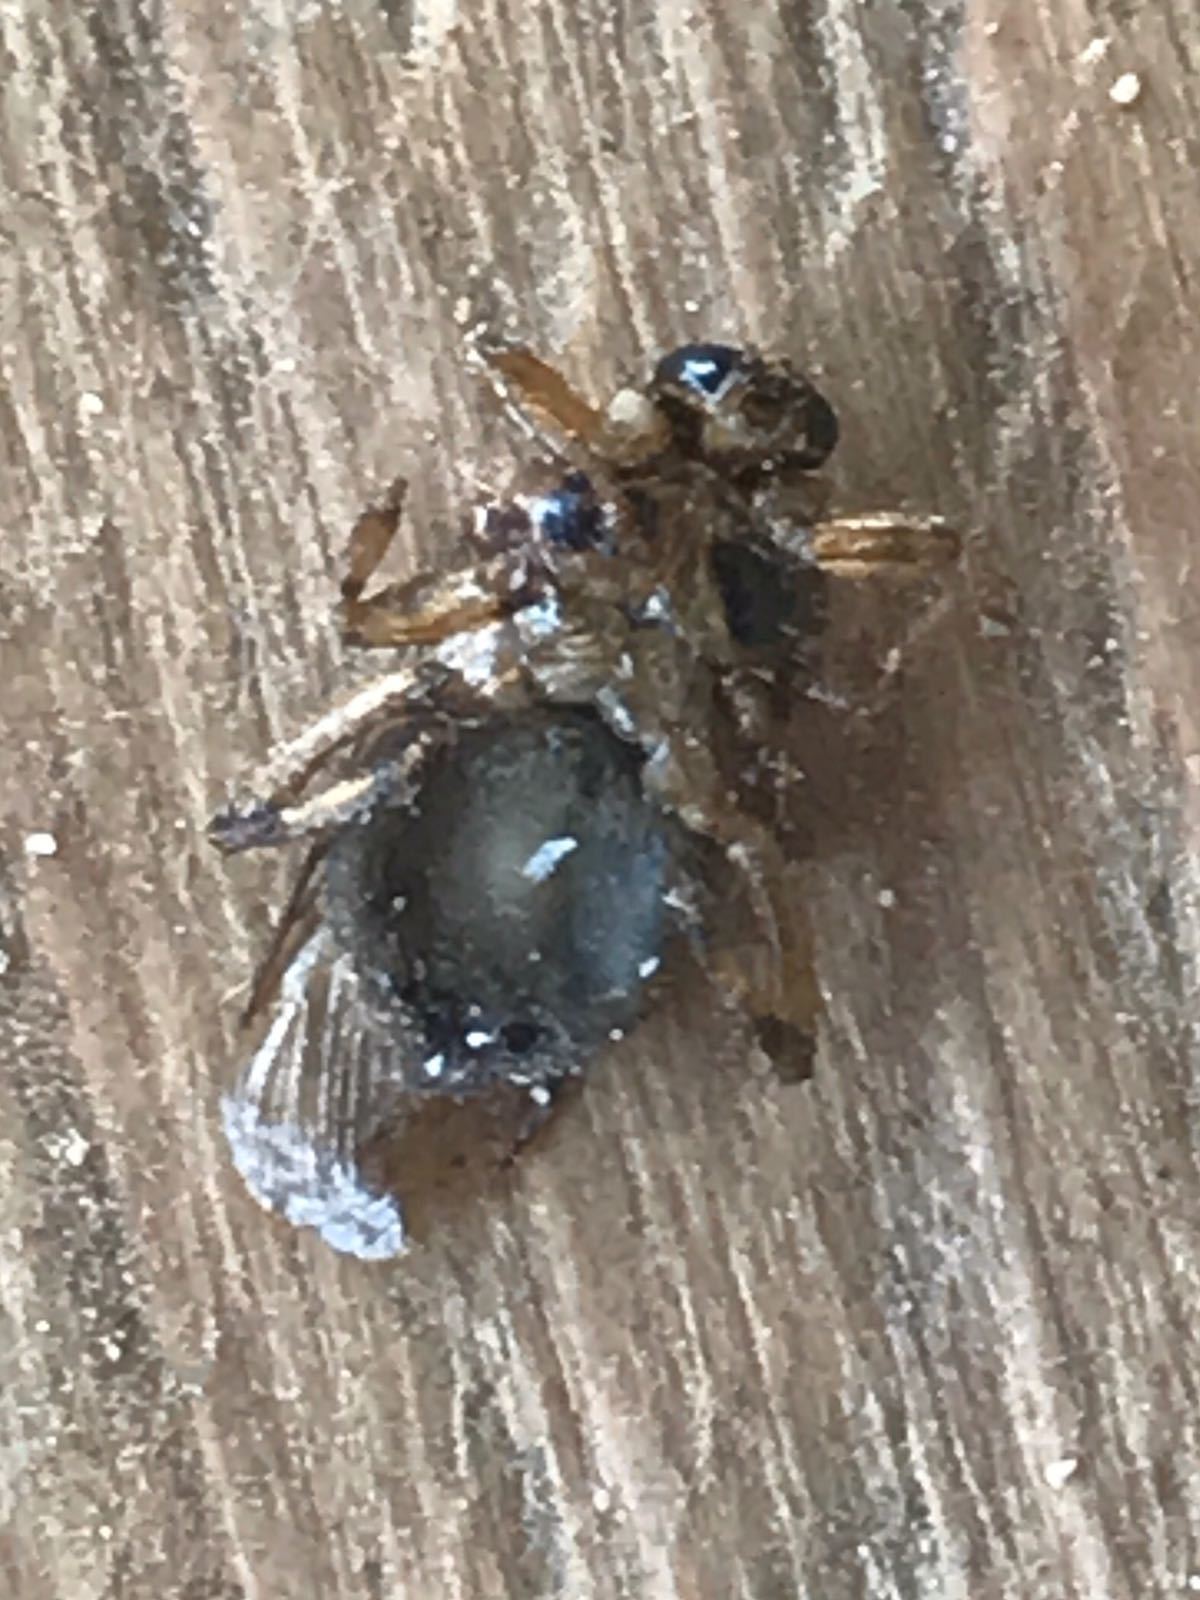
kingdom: Animalia
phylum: Arthropoda
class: Insecta
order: Diptera
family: Hippoboscidae
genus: Hippobosca
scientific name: Hippobosca equina
